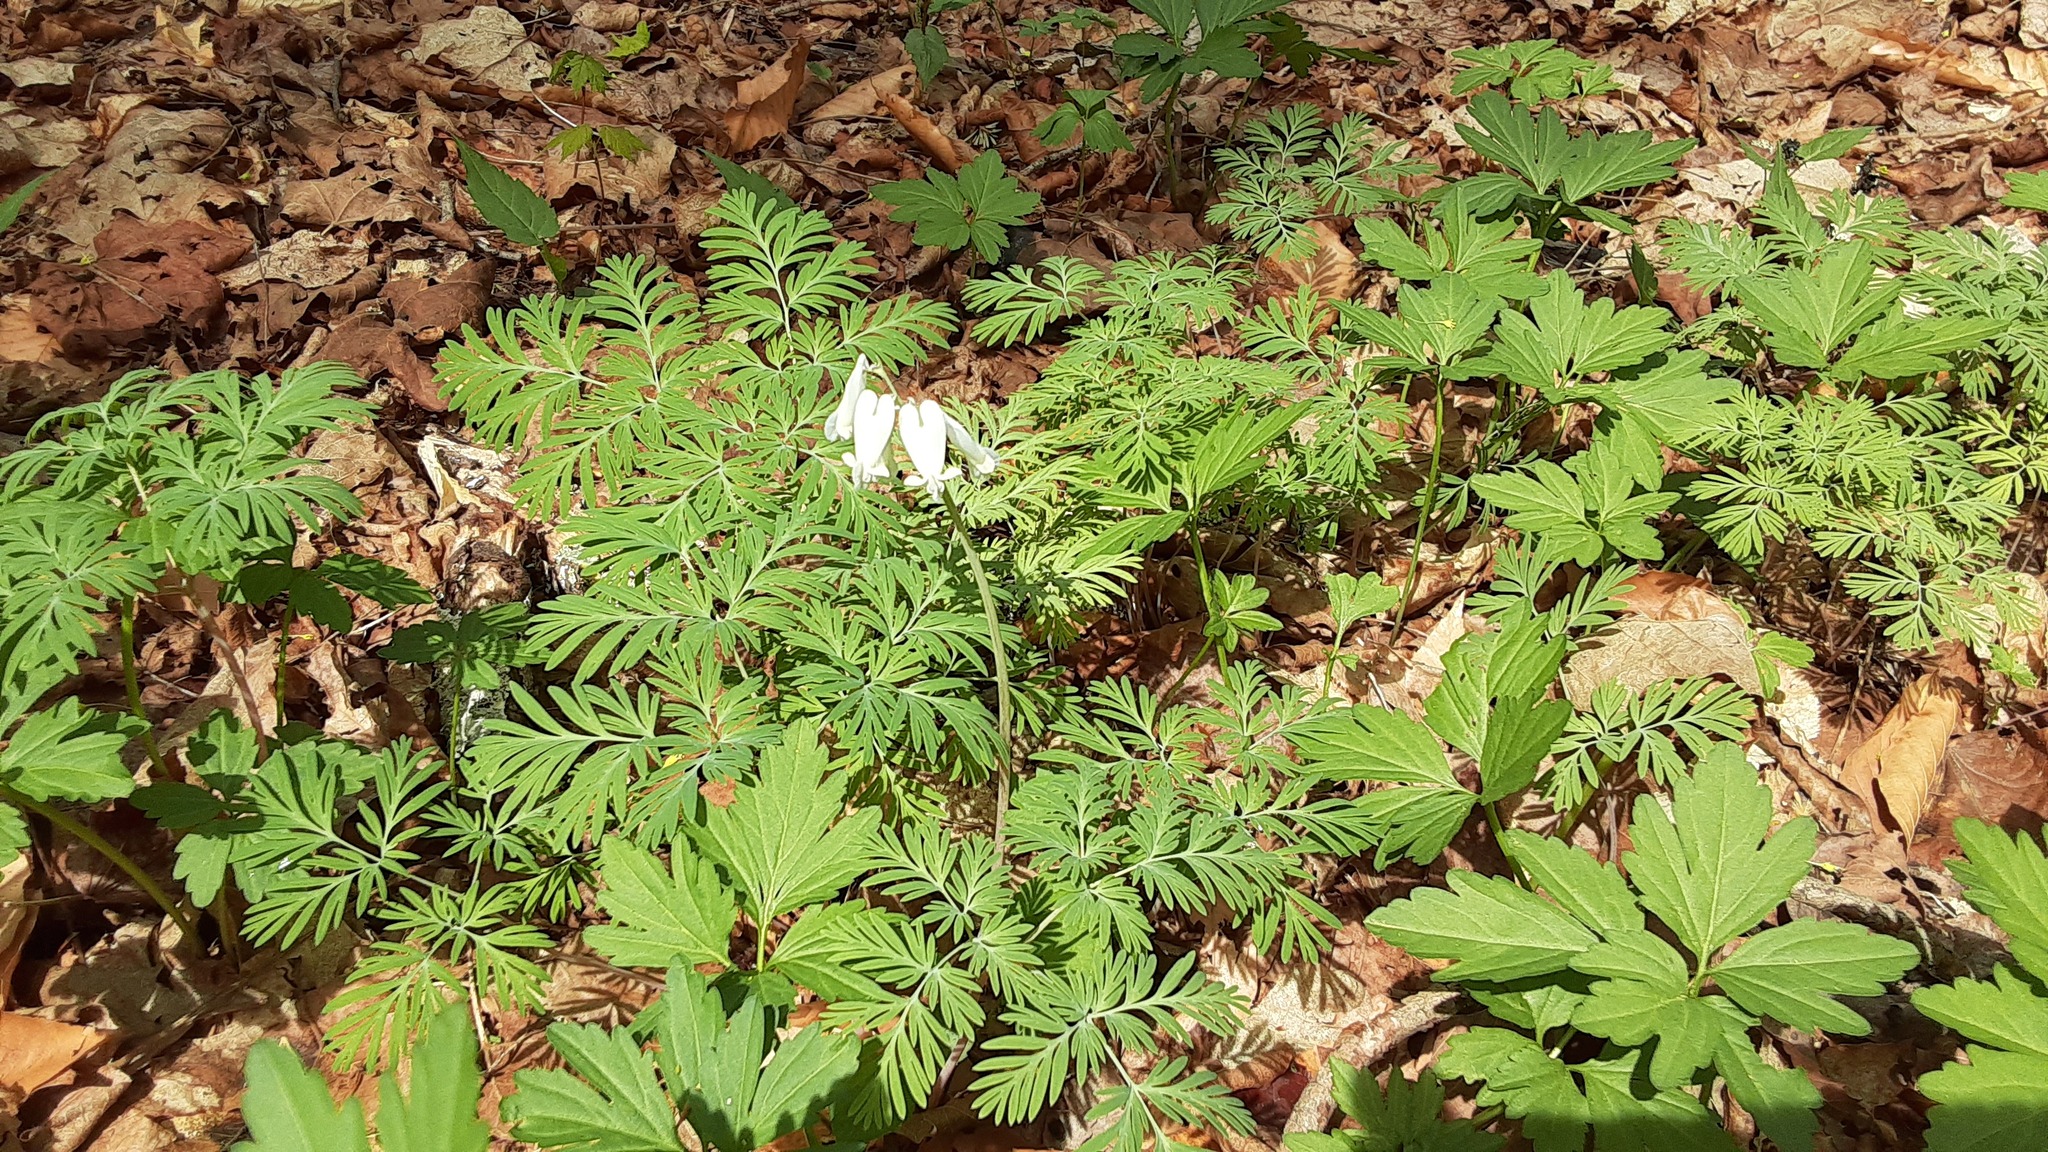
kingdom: Plantae
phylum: Tracheophyta
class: Magnoliopsida
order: Ranunculales
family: Papaveraceae
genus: Dicentra
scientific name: Dicentra canadensis
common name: Squirrel-corn
